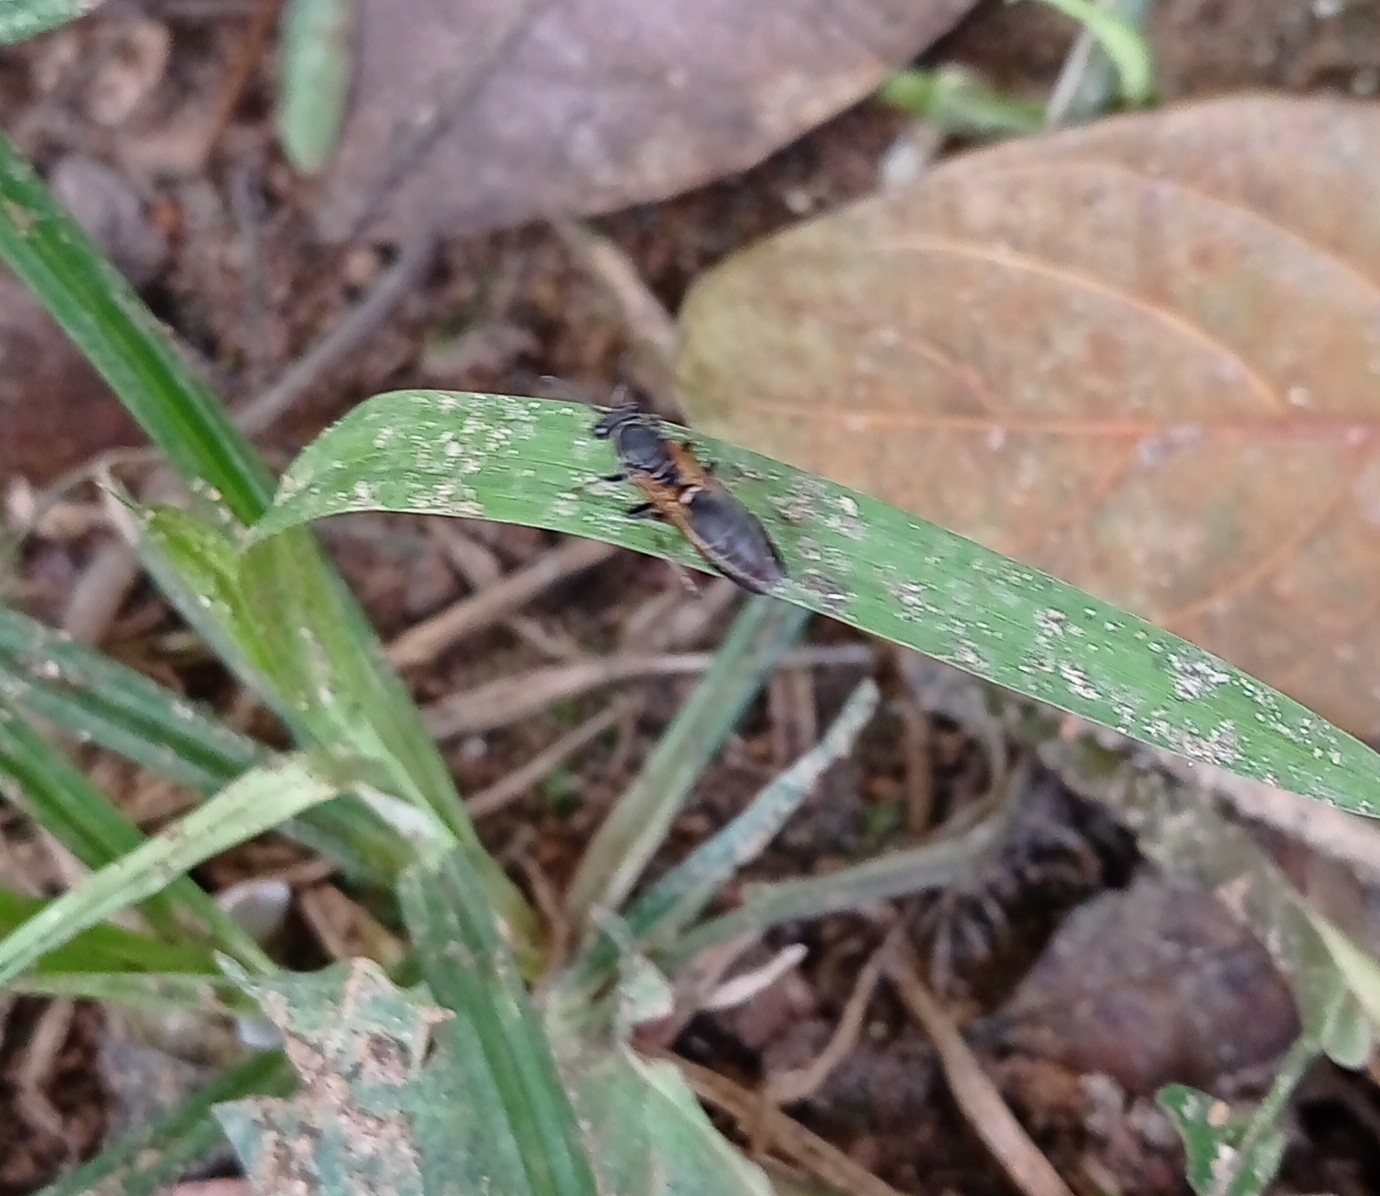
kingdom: Animalia
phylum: Arthropoda
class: Insecta
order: Hymenoptera
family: Eumenidae
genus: Polybia
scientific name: Polybia rejecta
